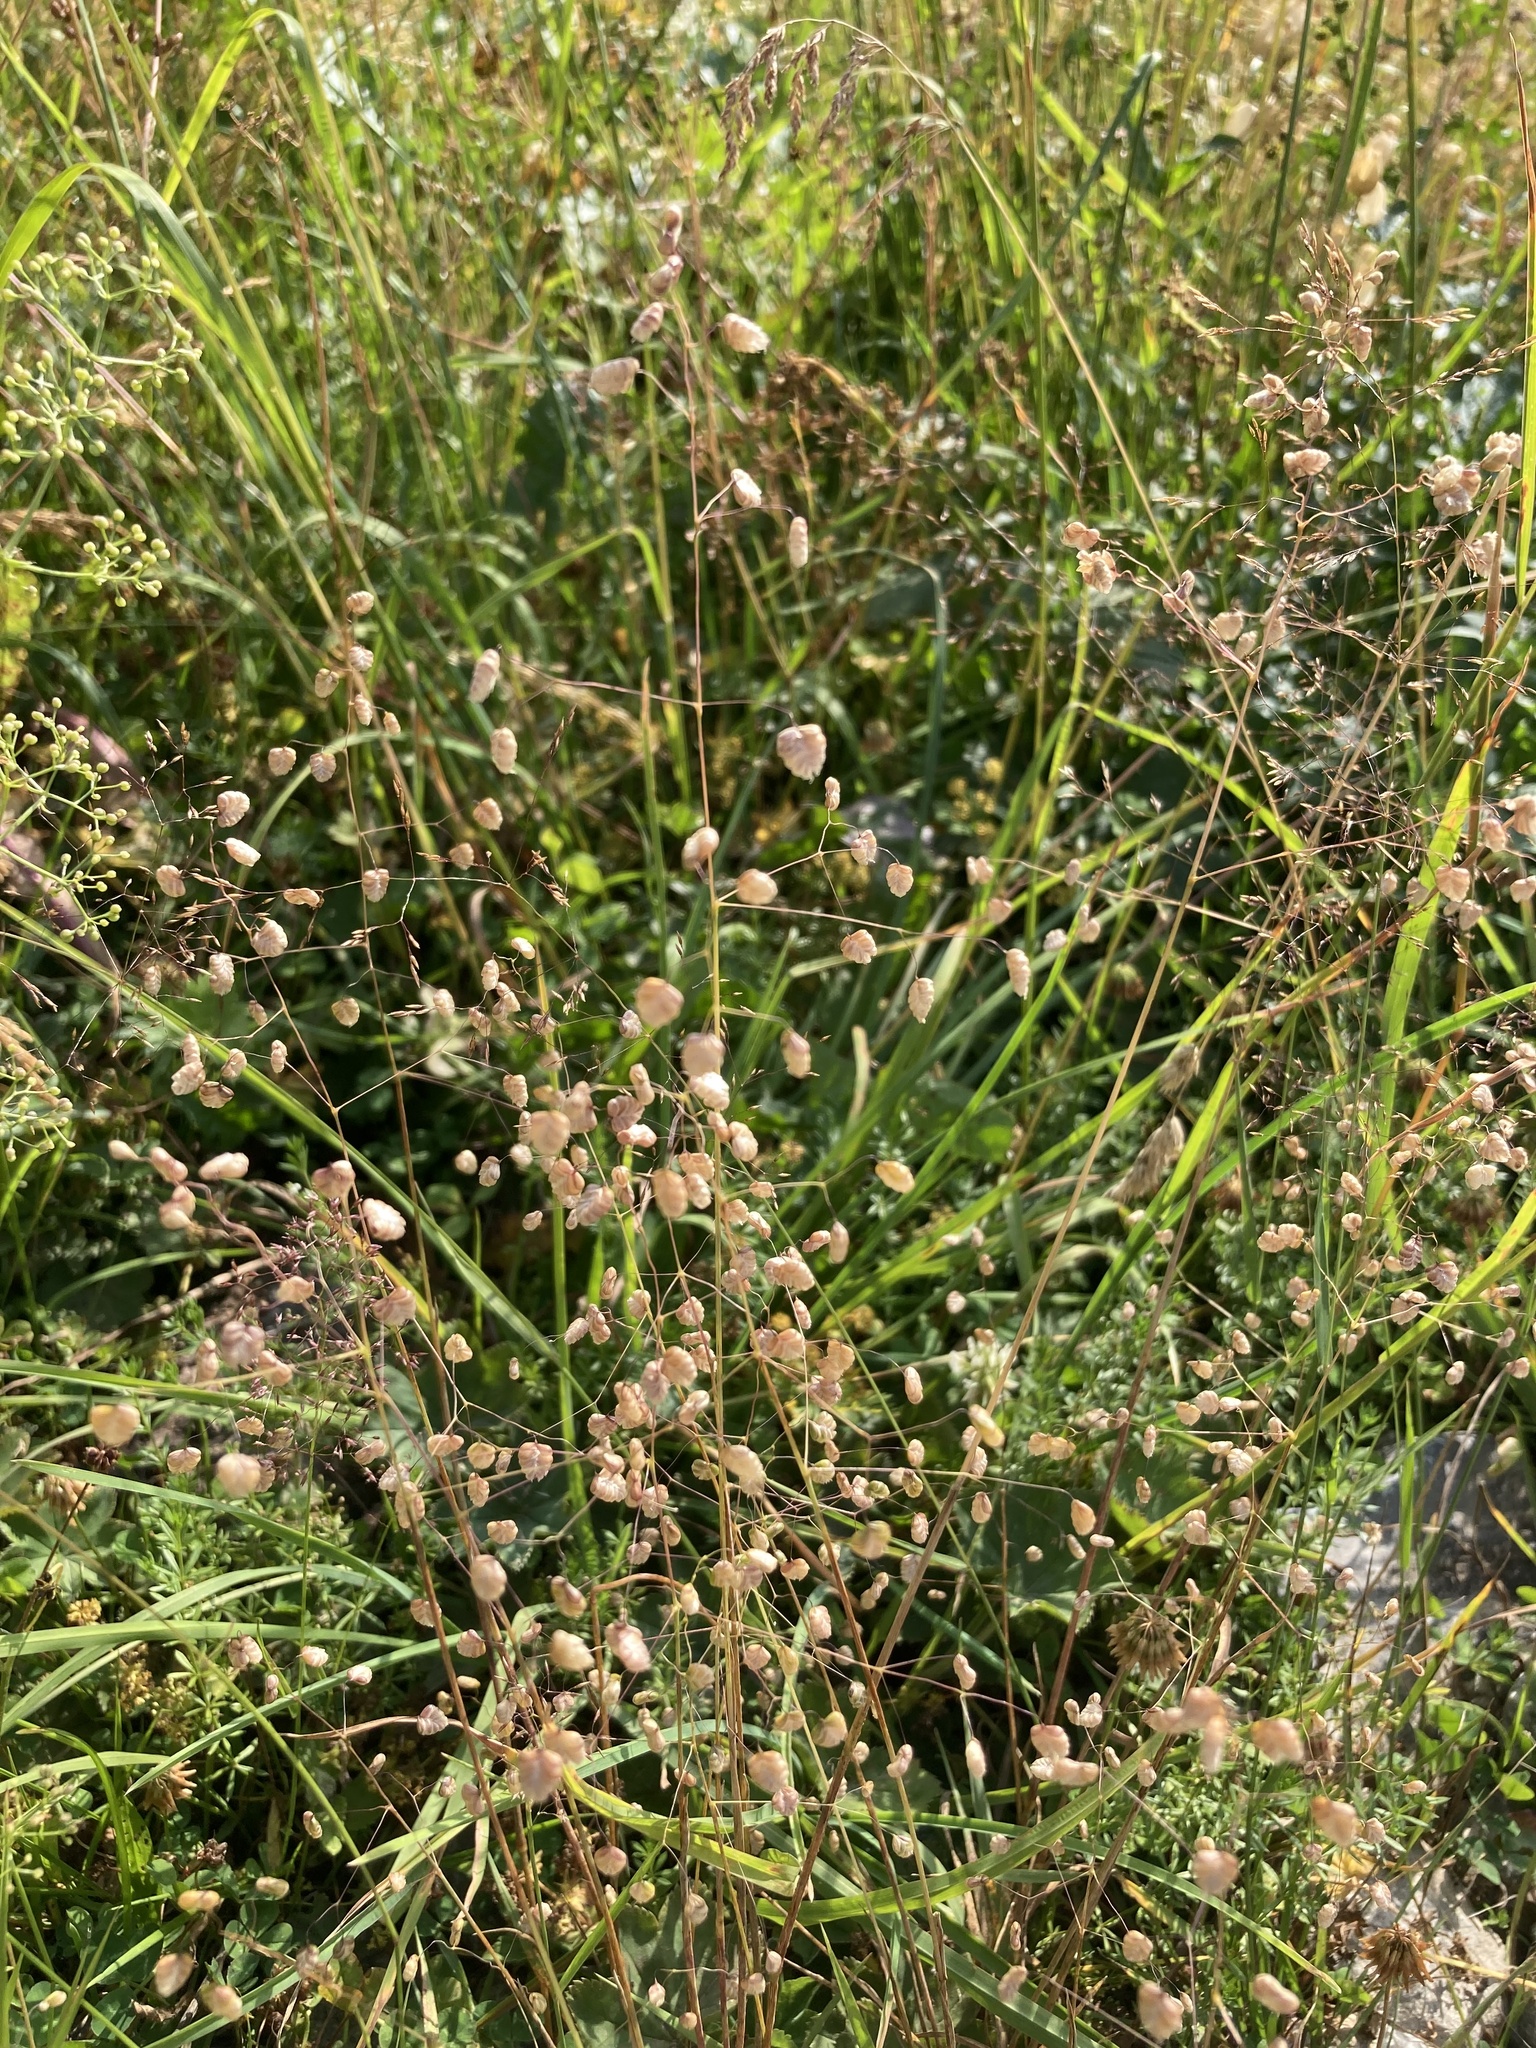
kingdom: Plantae
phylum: Tracheophyta
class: Liliopsida
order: Poales
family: Poaceae
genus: Briza
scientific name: Briza media
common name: Quaking grass
